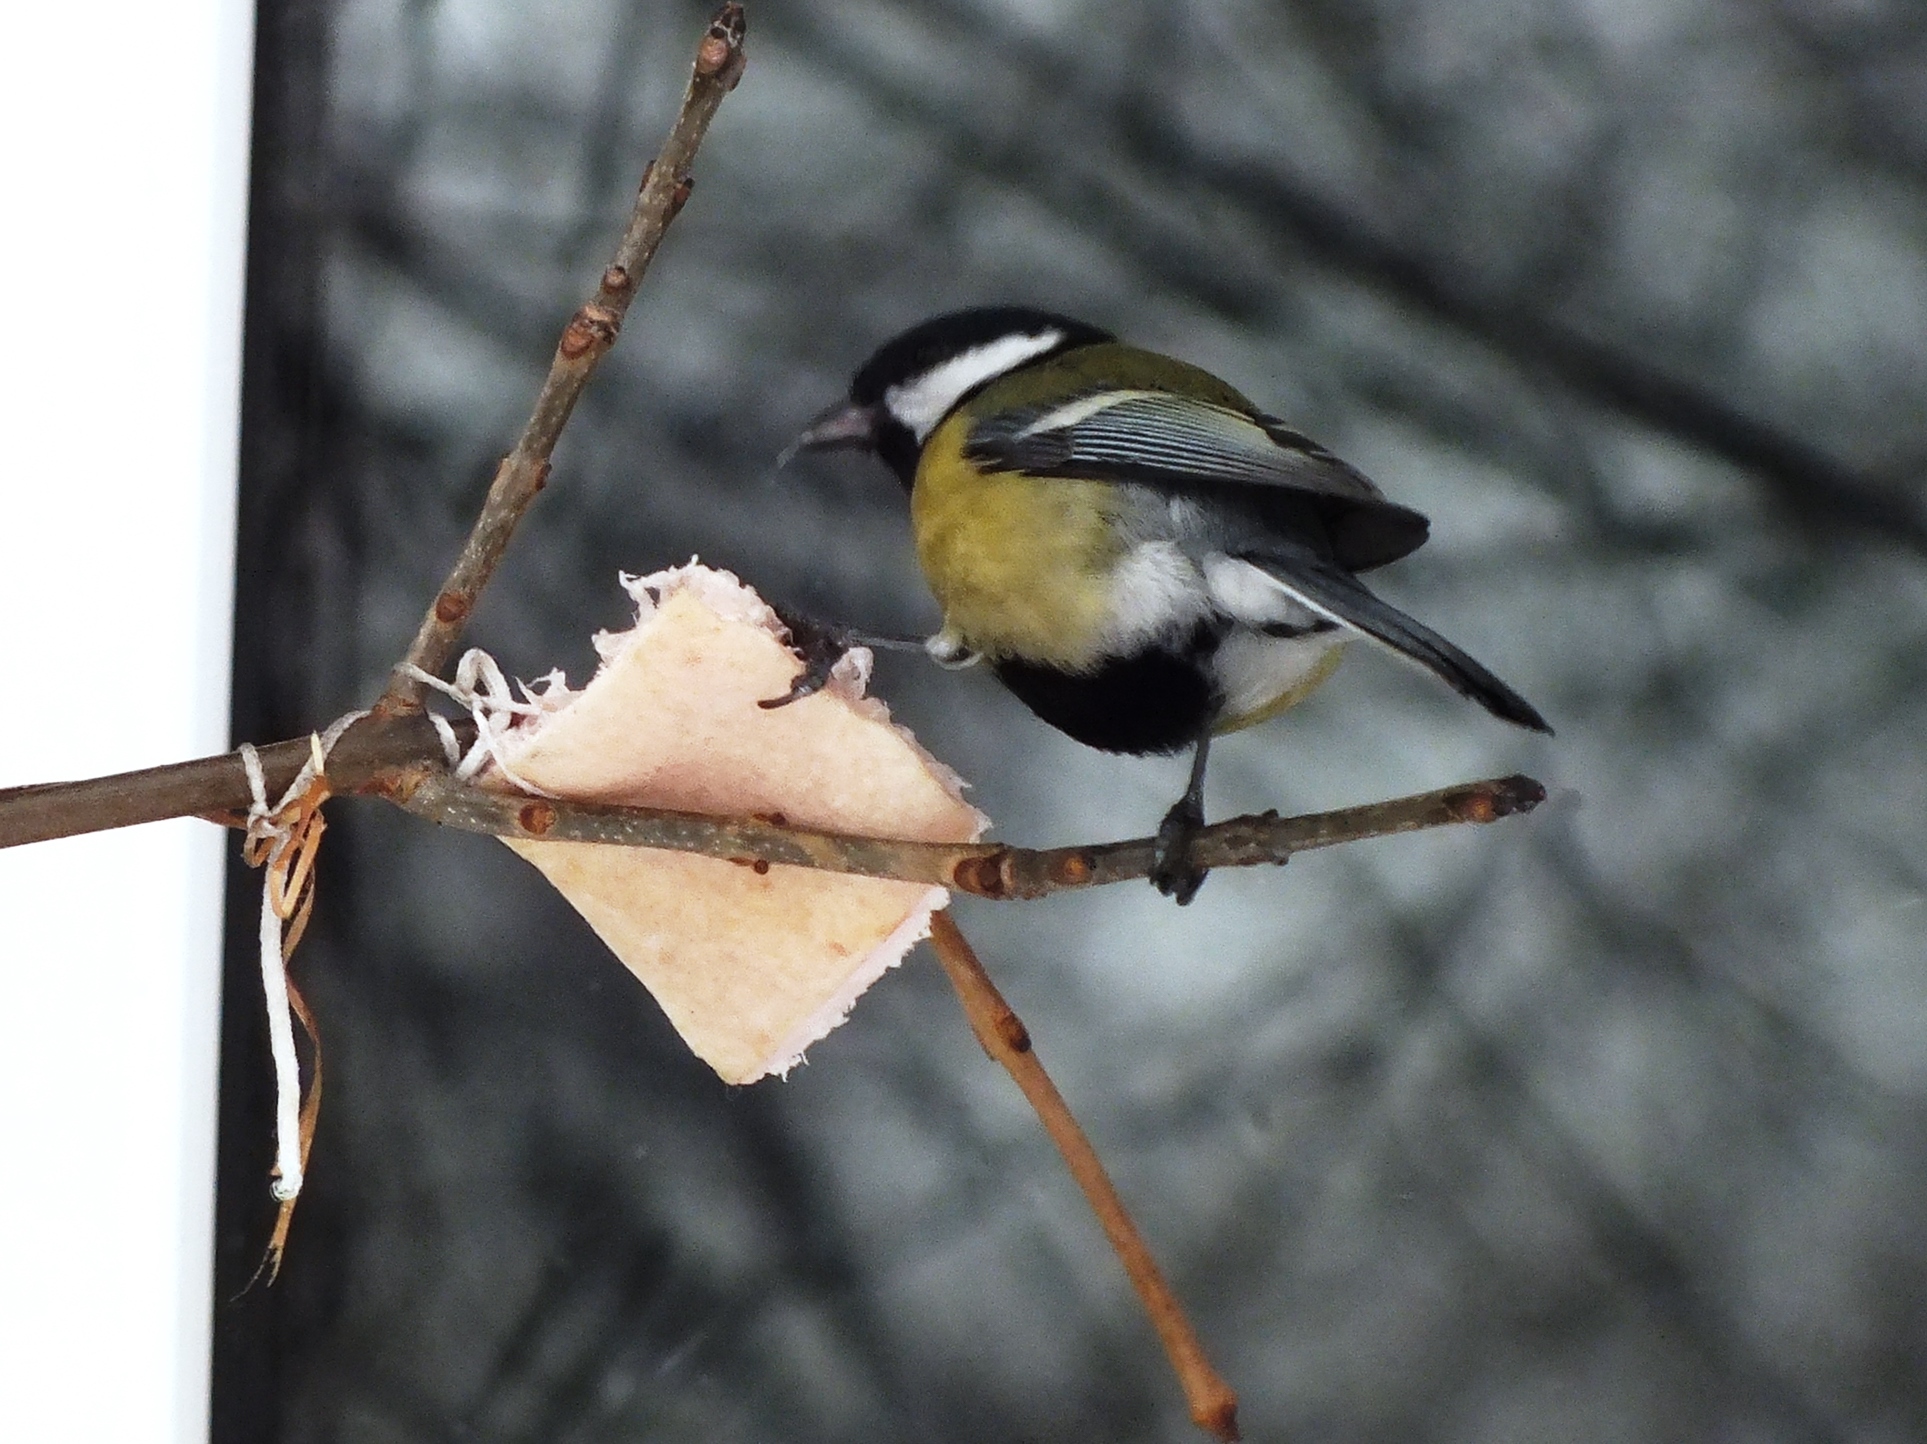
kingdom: Animalia
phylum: Chordata
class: Aves
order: Passeriformes
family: Paridae
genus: Parus
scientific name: Parus major
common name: Great tit
